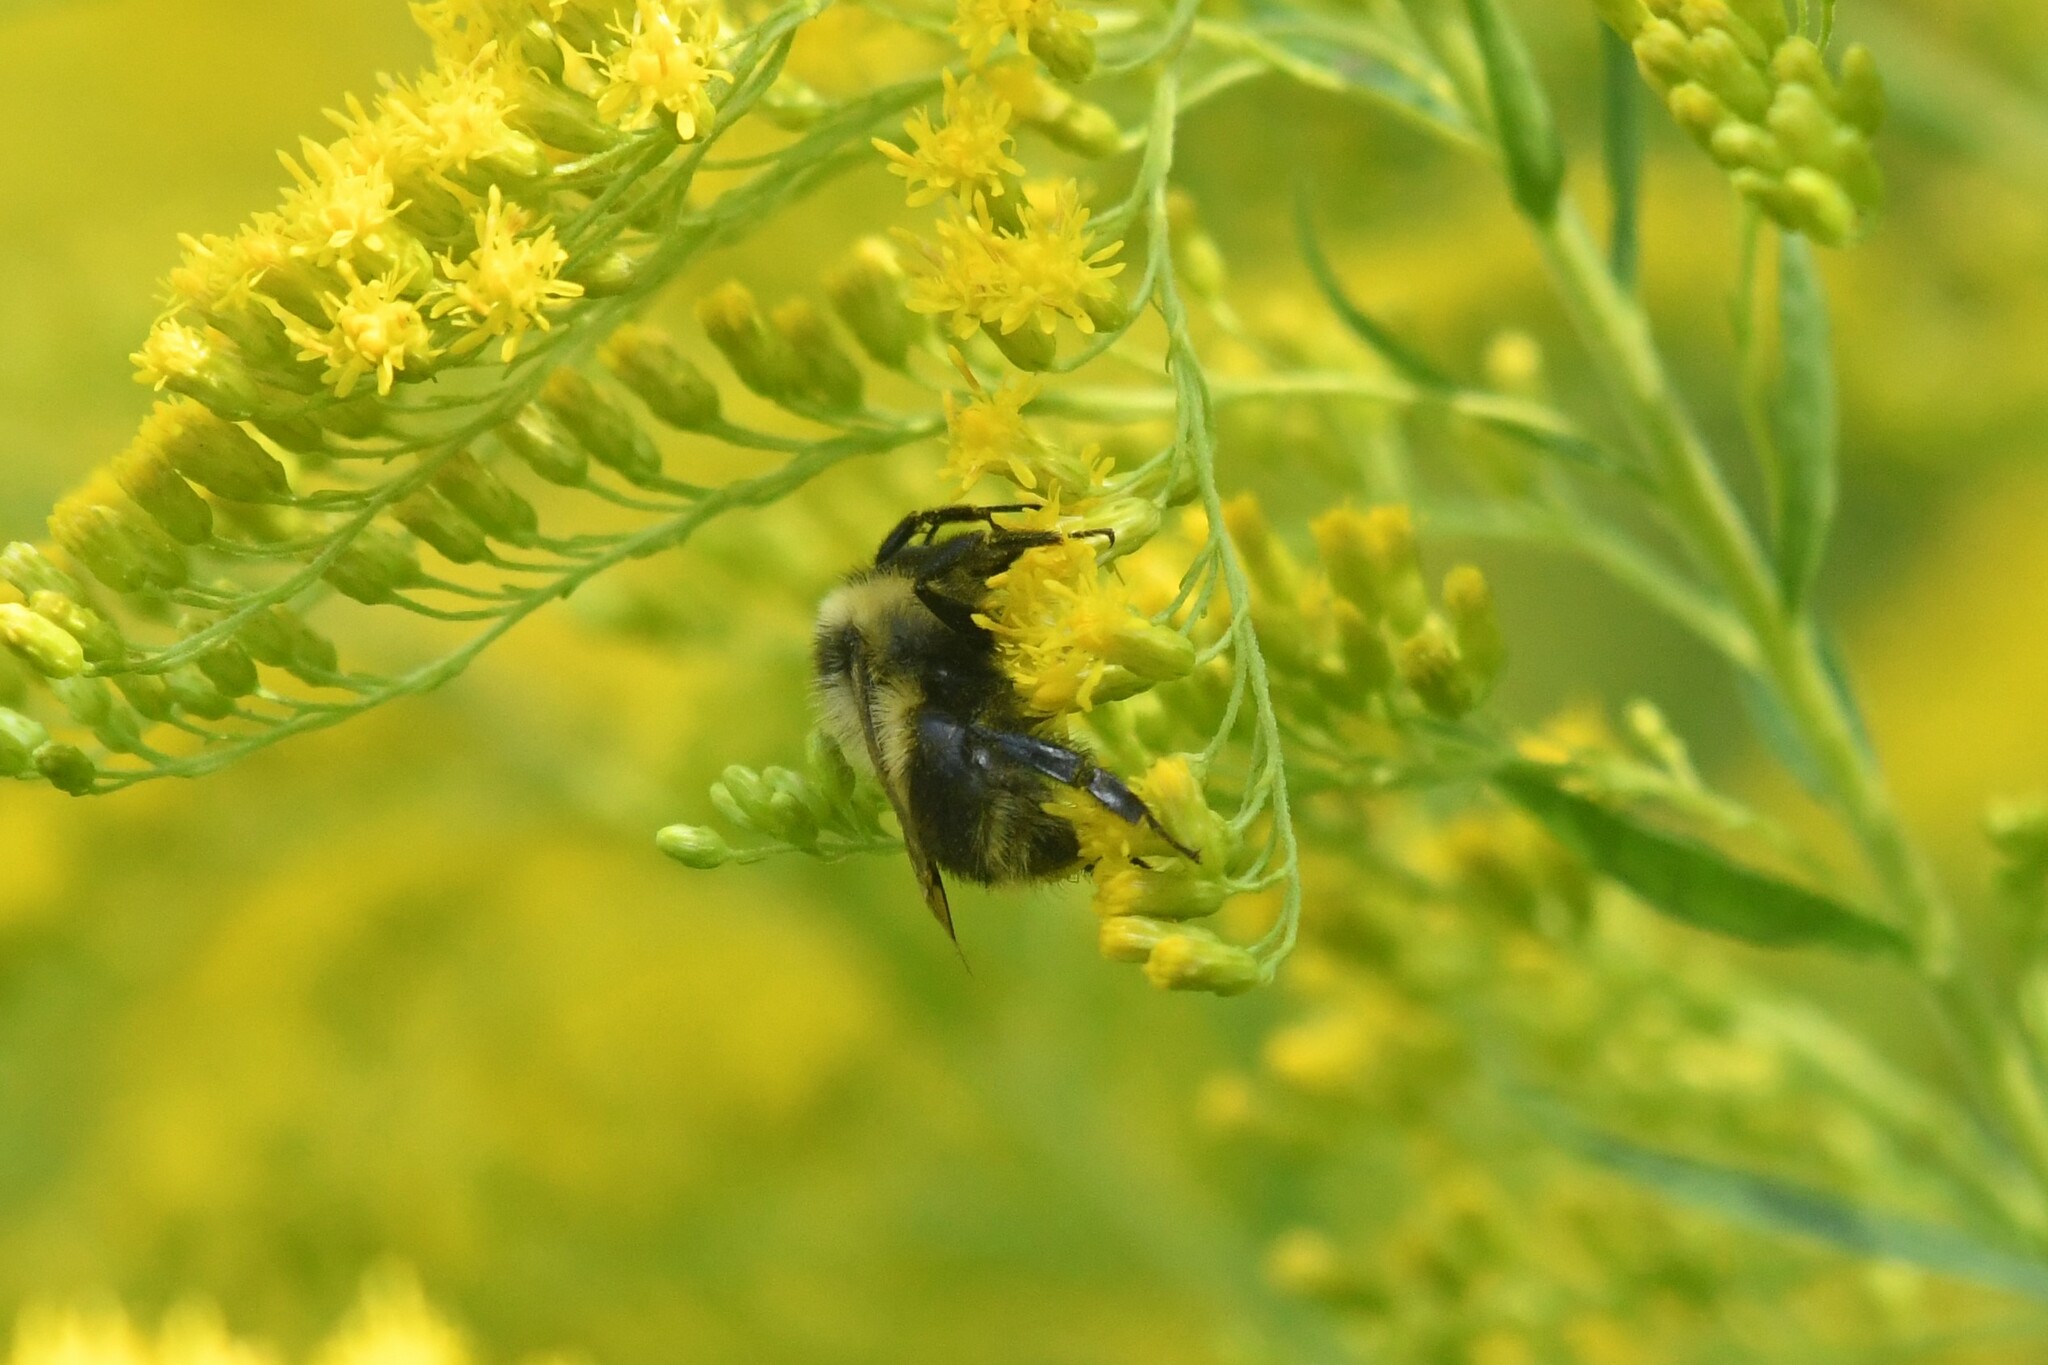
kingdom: Animalia
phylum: Arthropoda
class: Insecta
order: Hymenoptera
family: Apidae
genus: Bombus
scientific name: Bombus rufocinctus
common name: Red-belted bumble bee
